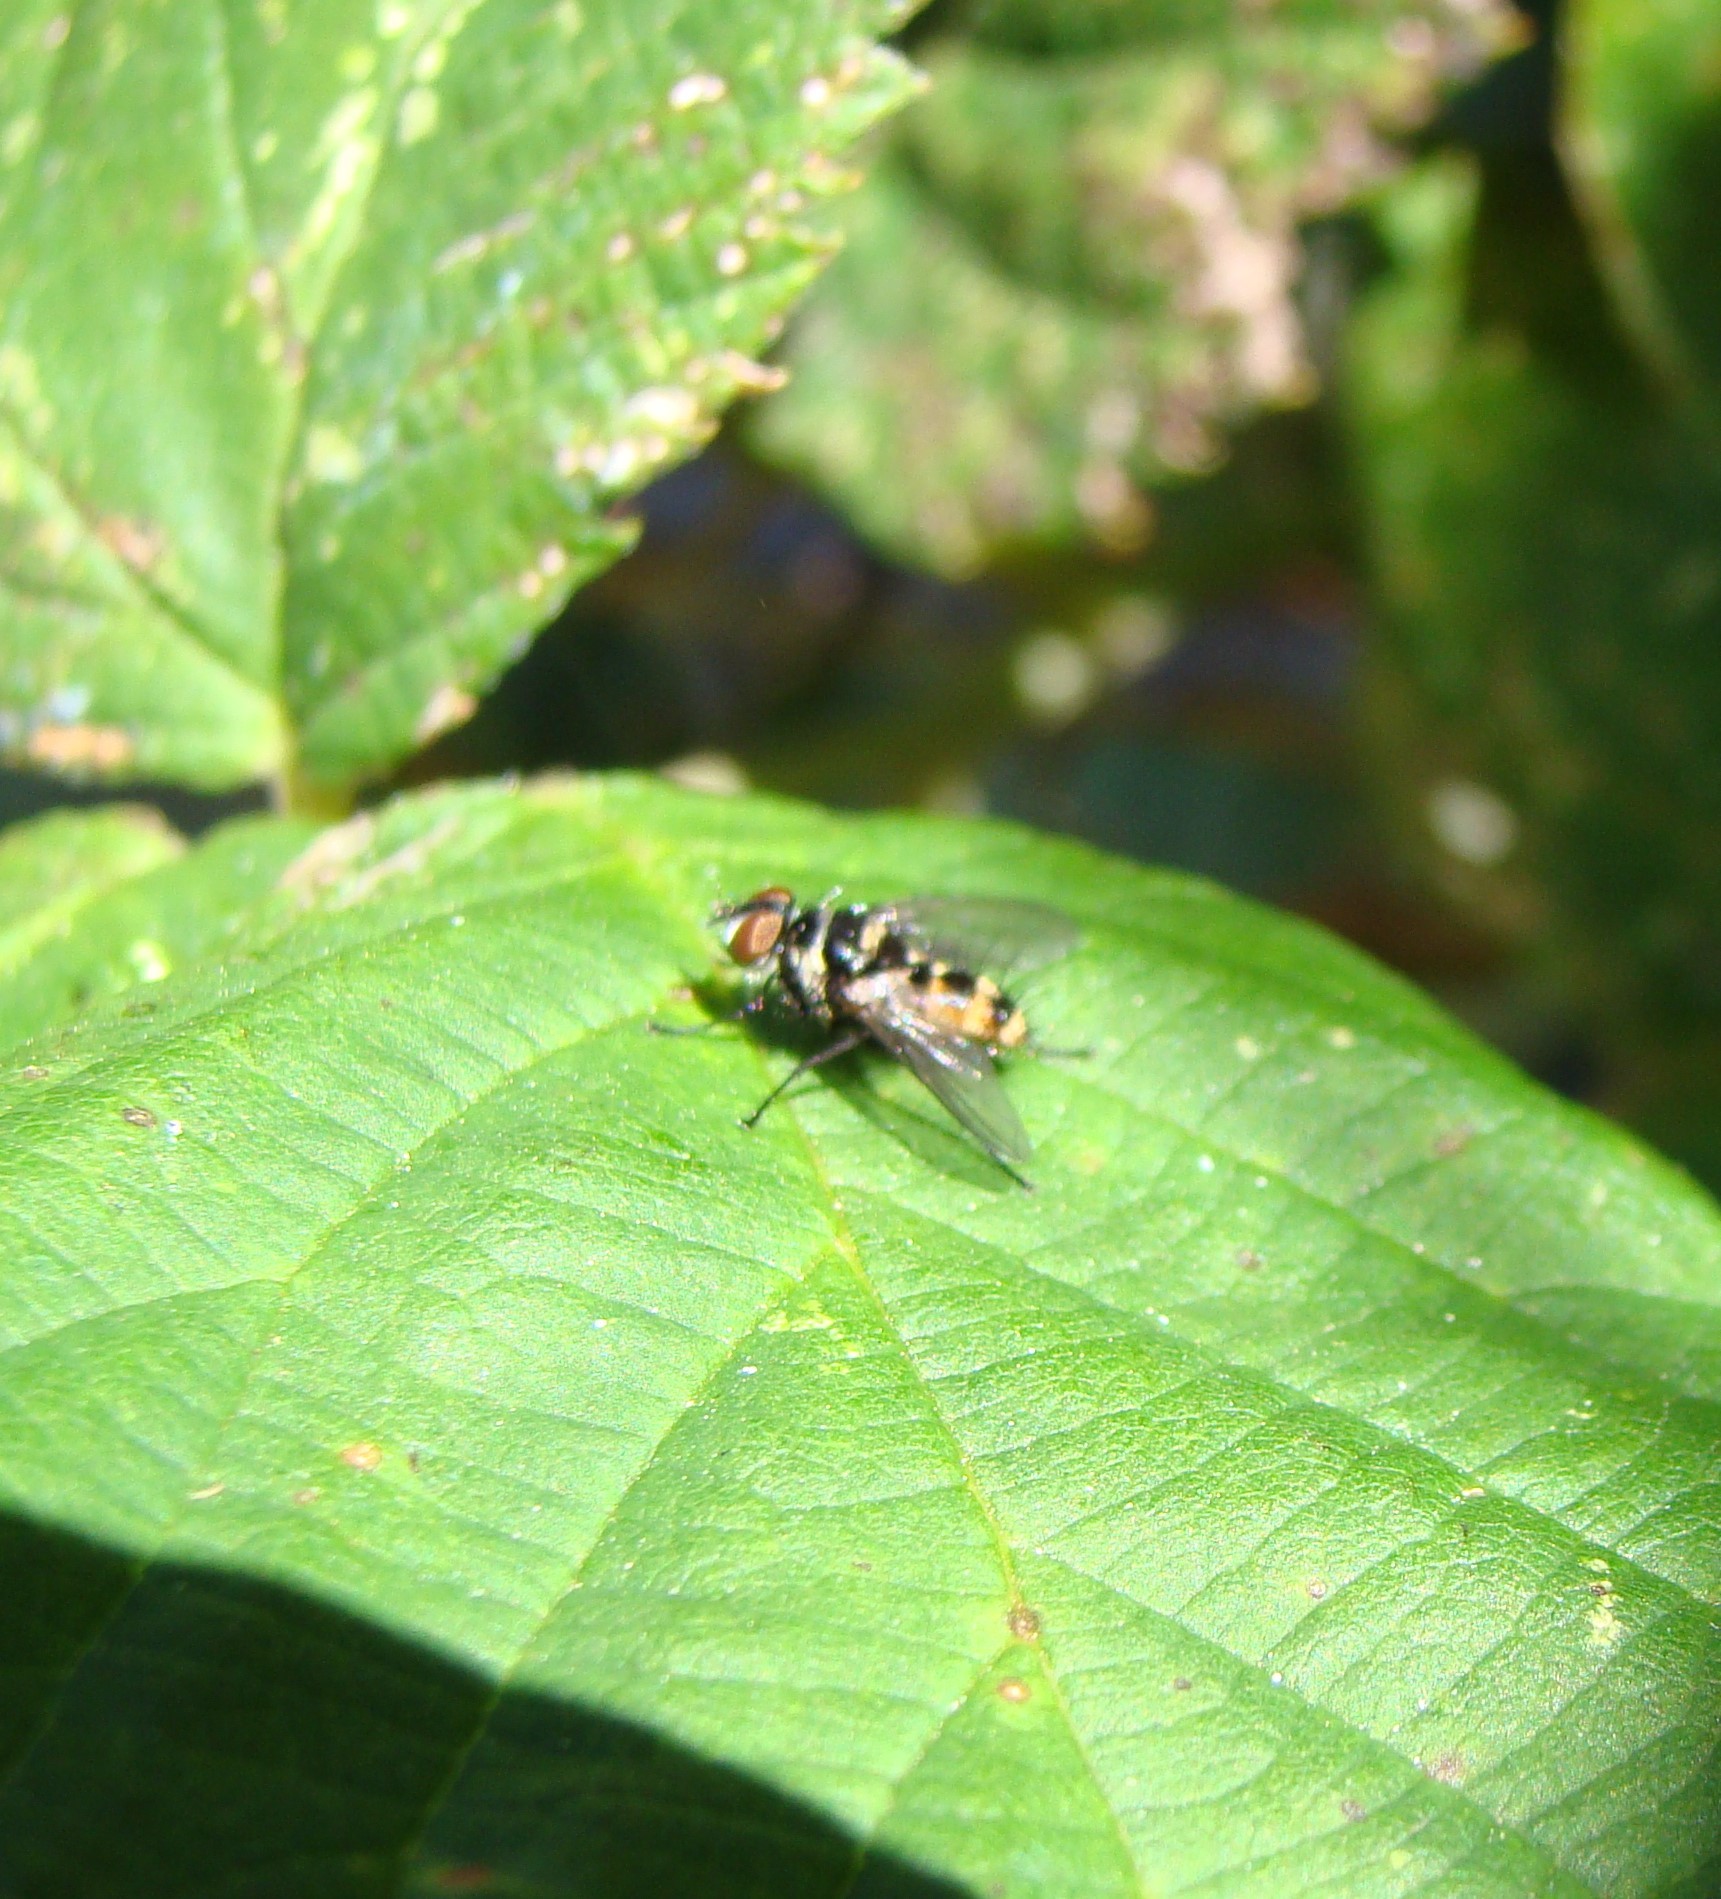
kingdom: Animalia
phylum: Arthropoda
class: Insecta
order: Diptera
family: Tachinidae
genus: Trigonospila
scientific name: Trigonospila brevifacies
